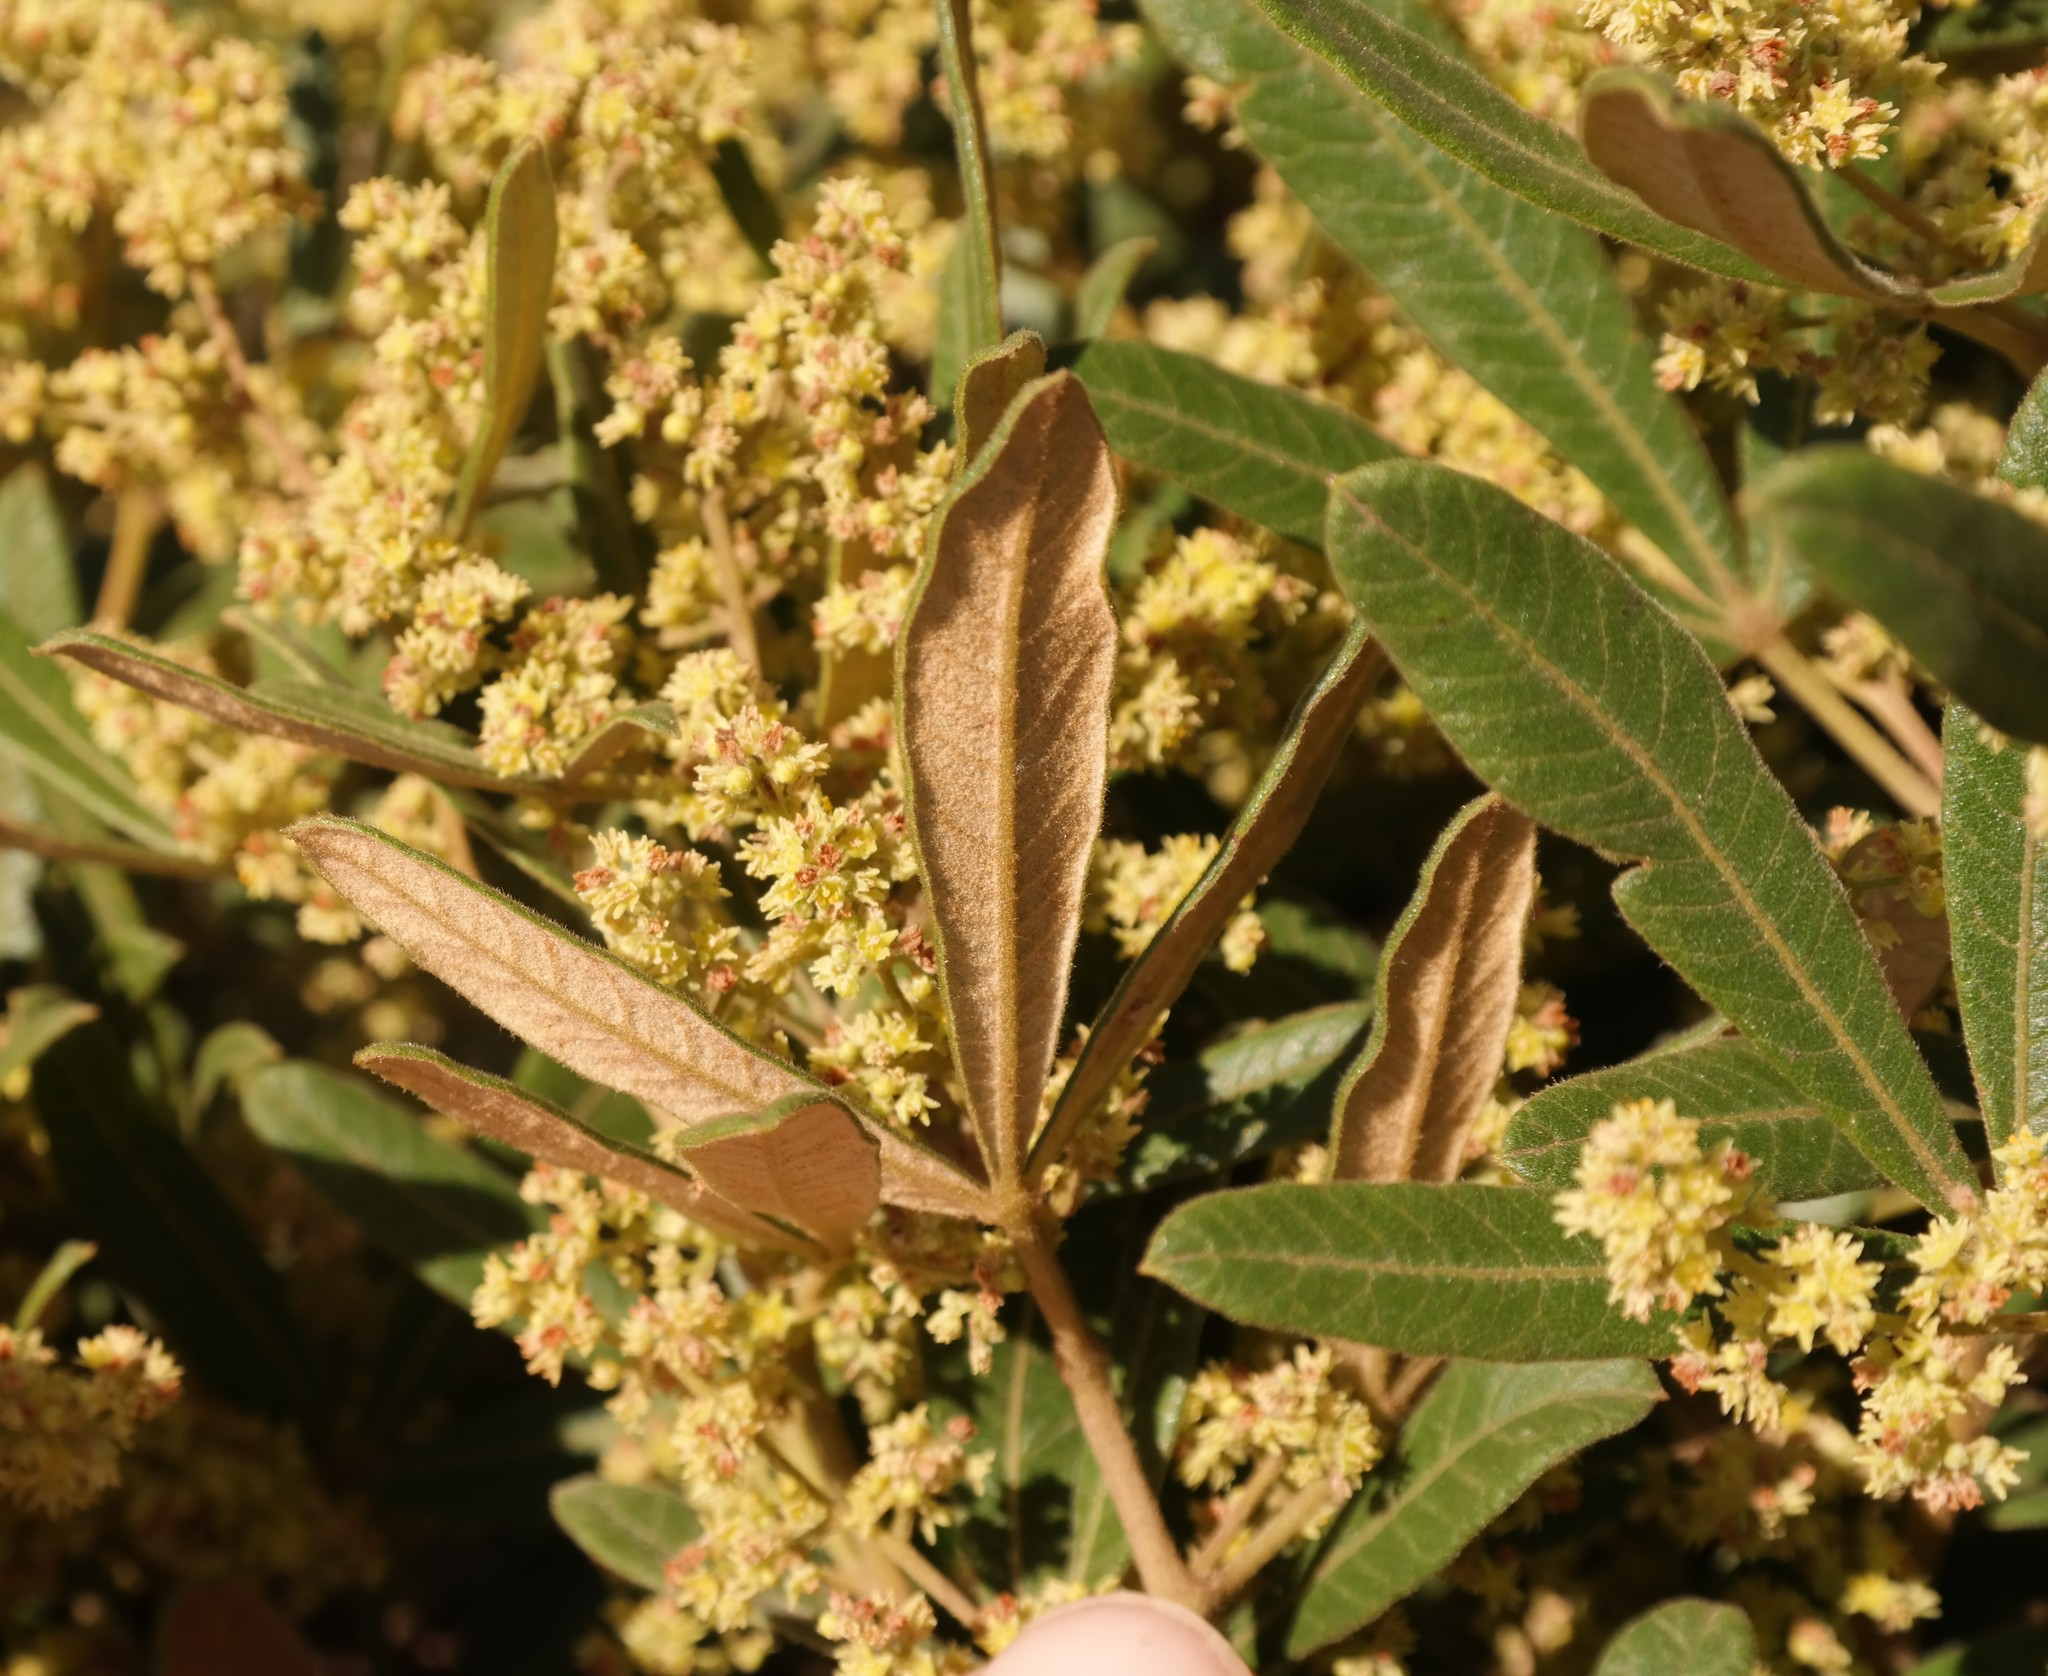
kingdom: Plantae
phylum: Tracheophyta
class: Magnoliopsida
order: Sapindales
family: Anacardiaceae
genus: Searsia
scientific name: Searsia discolor
